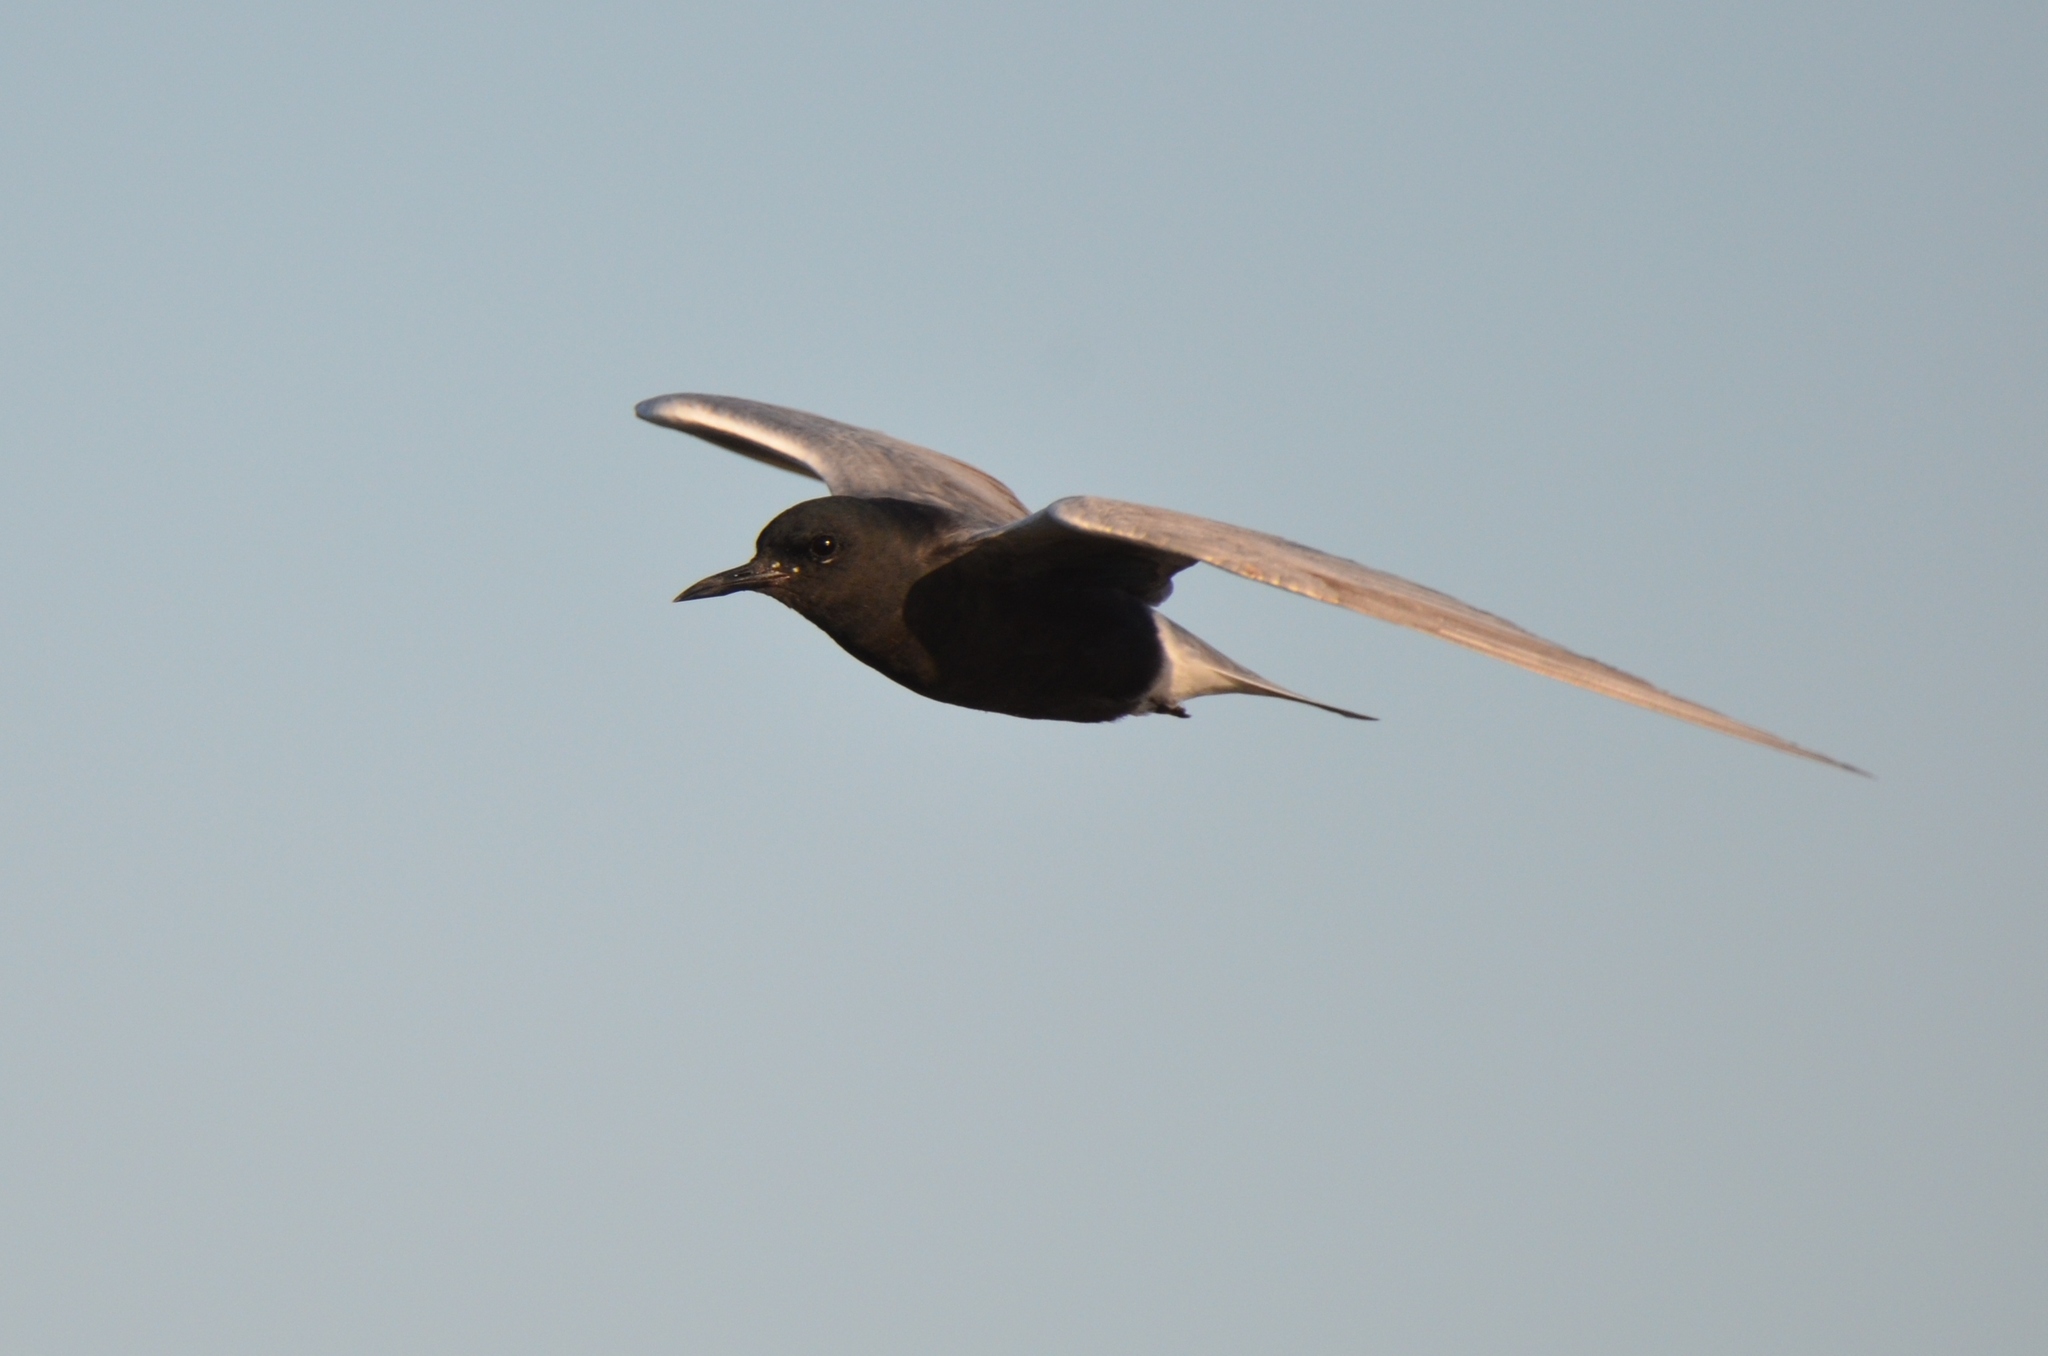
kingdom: Animalia
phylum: Chordata
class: Aves
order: Charadriiformes
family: Laridae
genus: Chlidonias
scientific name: Chlidonias niger
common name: Black tern
